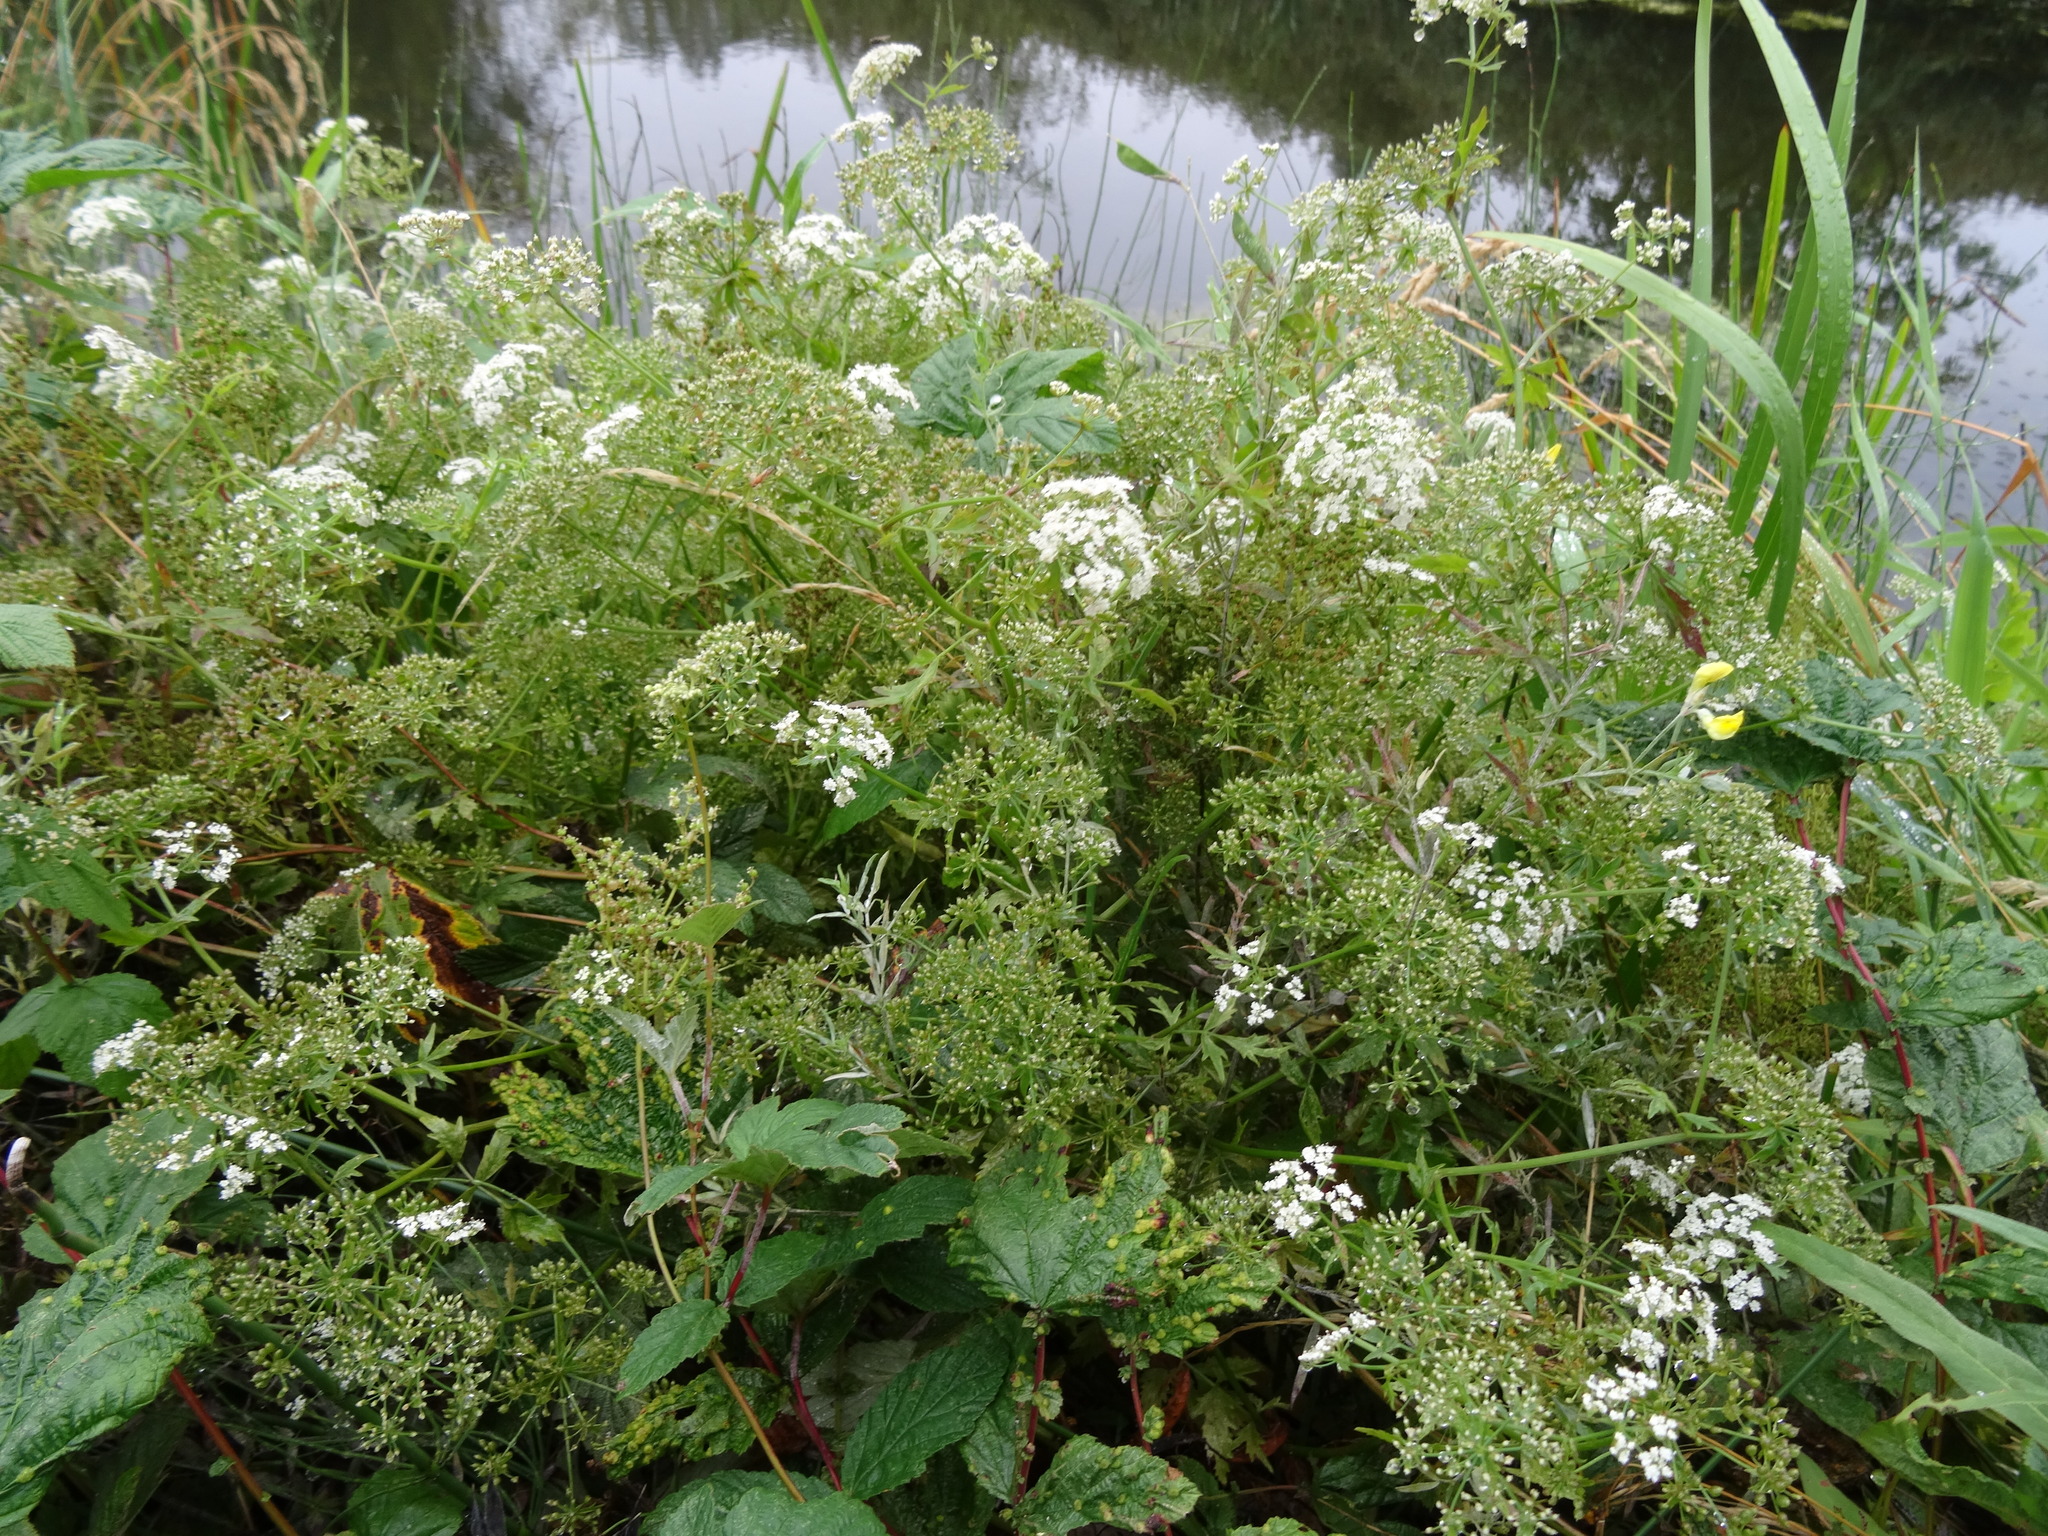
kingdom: Plantae
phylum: Tracheophyta
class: Magnoliopsida
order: Apiales
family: Apiaceae
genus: Berula
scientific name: Berula erecta
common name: Lesser water-parsnip
